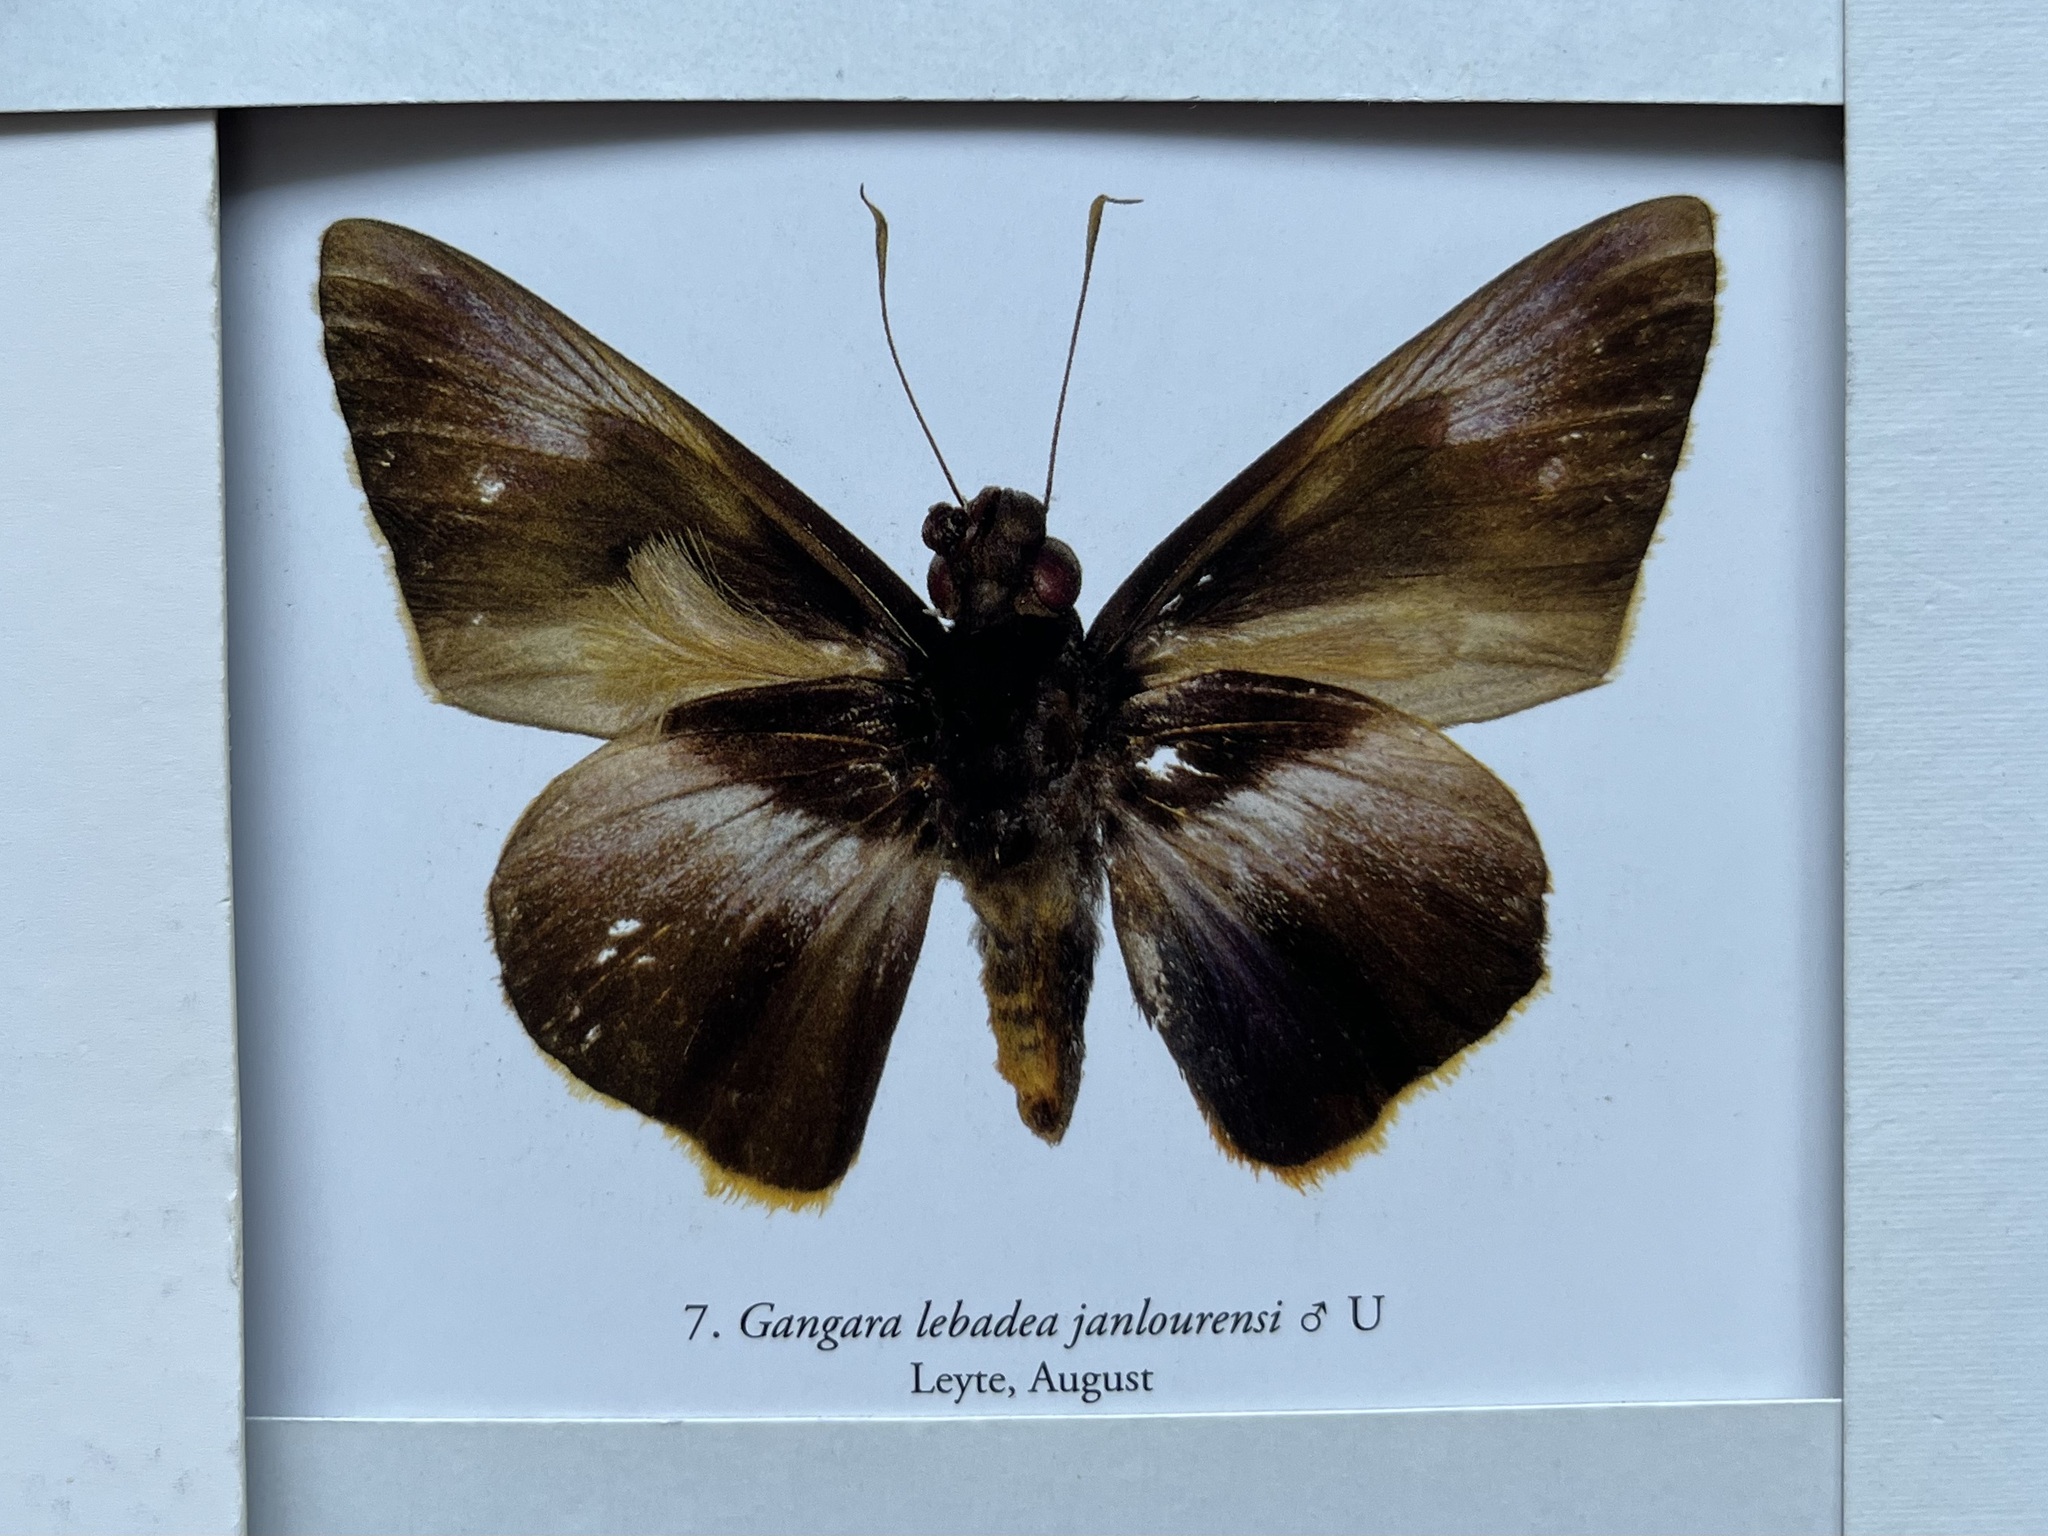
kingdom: Animalia
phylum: Arthropoda
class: Insecta
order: Lepidoptera
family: Hesperiidae
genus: Gangara
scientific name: Gangara lebadea
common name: Banded redeye
